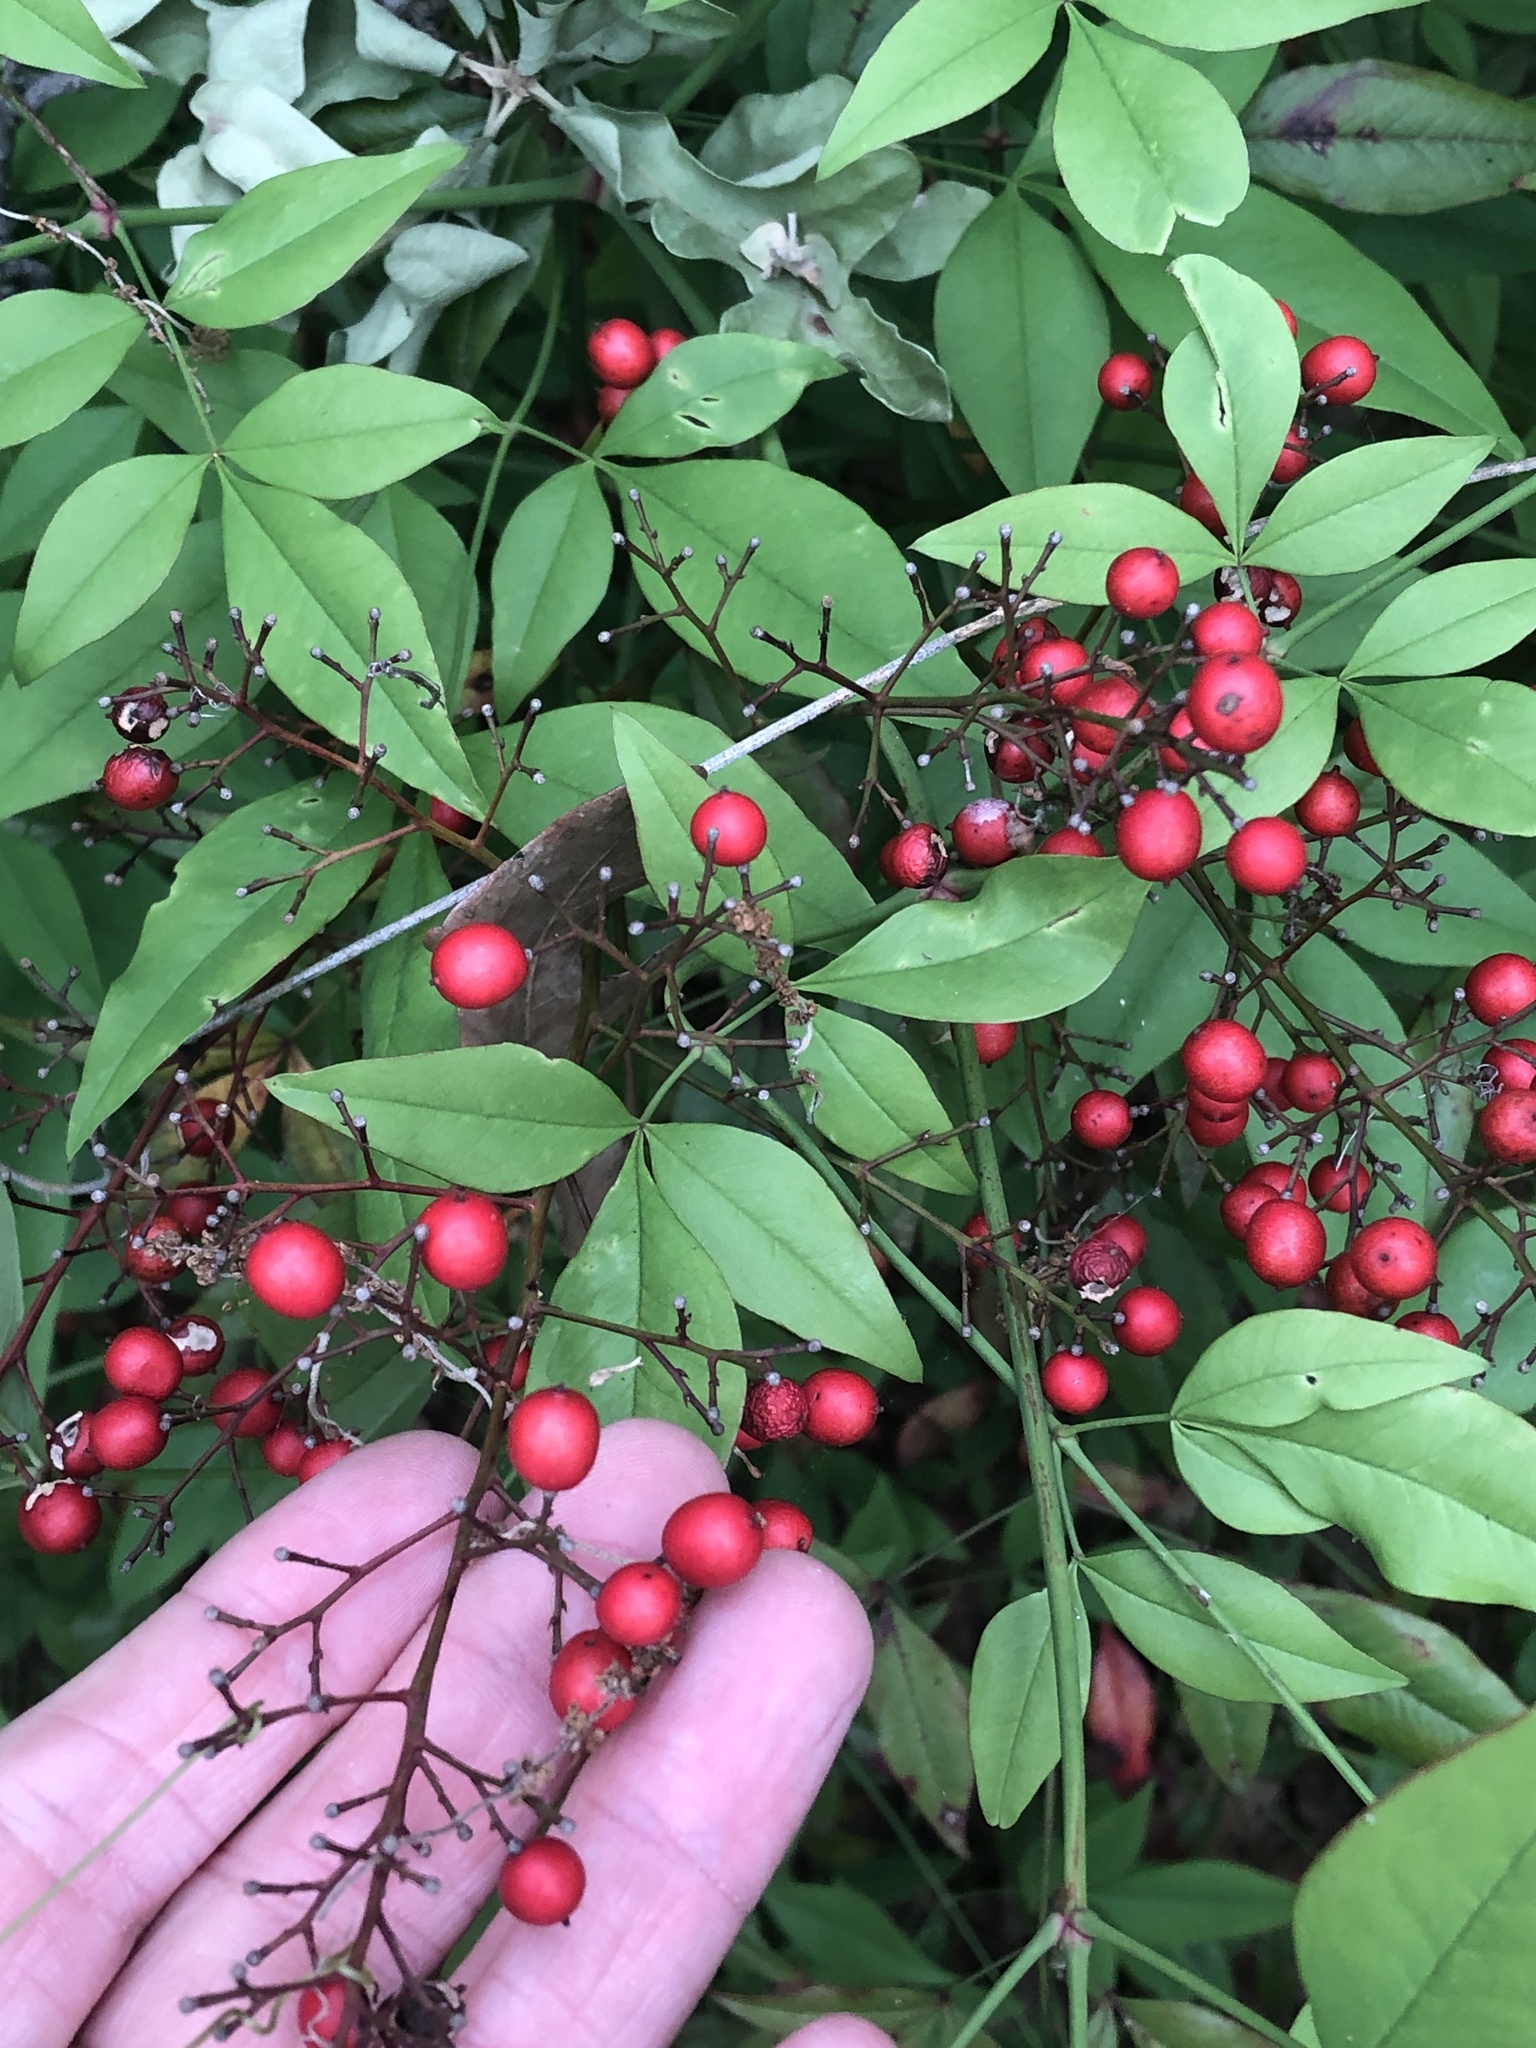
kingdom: Plantae
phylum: Tracheophyta
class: Magnoliopsida
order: Ranunculales
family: Berberidaceae
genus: Nandina
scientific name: Nandina domestica
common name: Sacred bamboo
